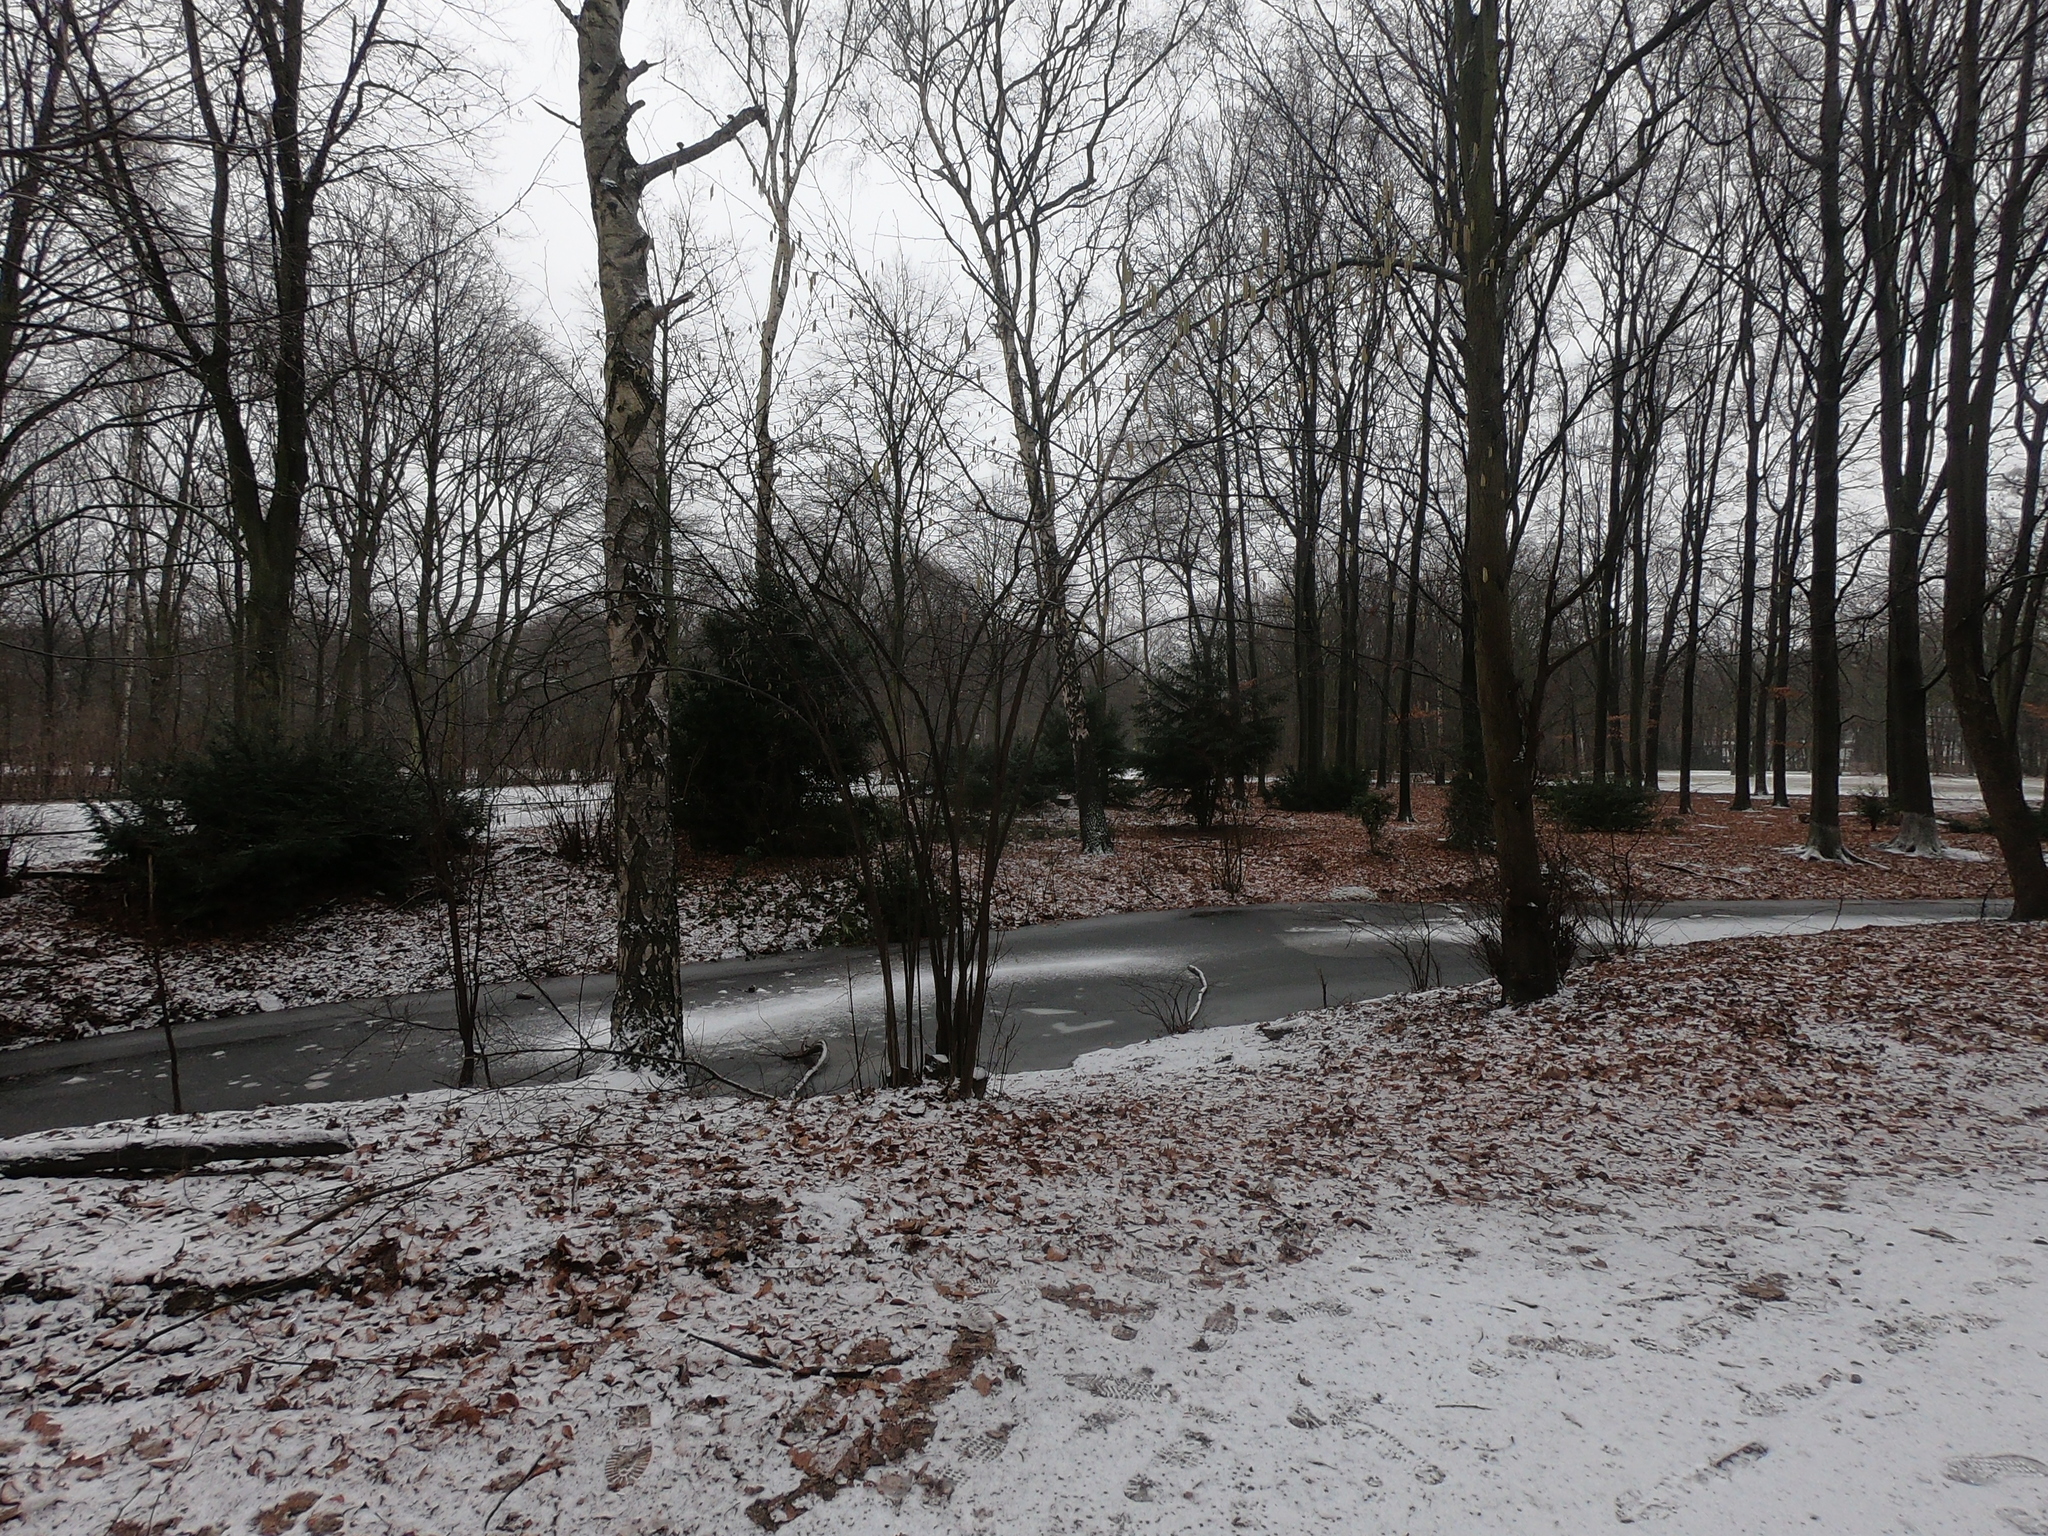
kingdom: Plantae
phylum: Tracheophyta
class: Magnoliopsida
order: Fagales
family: Betulaceae
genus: Corylus
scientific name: Corylus avellana
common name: European hazel
